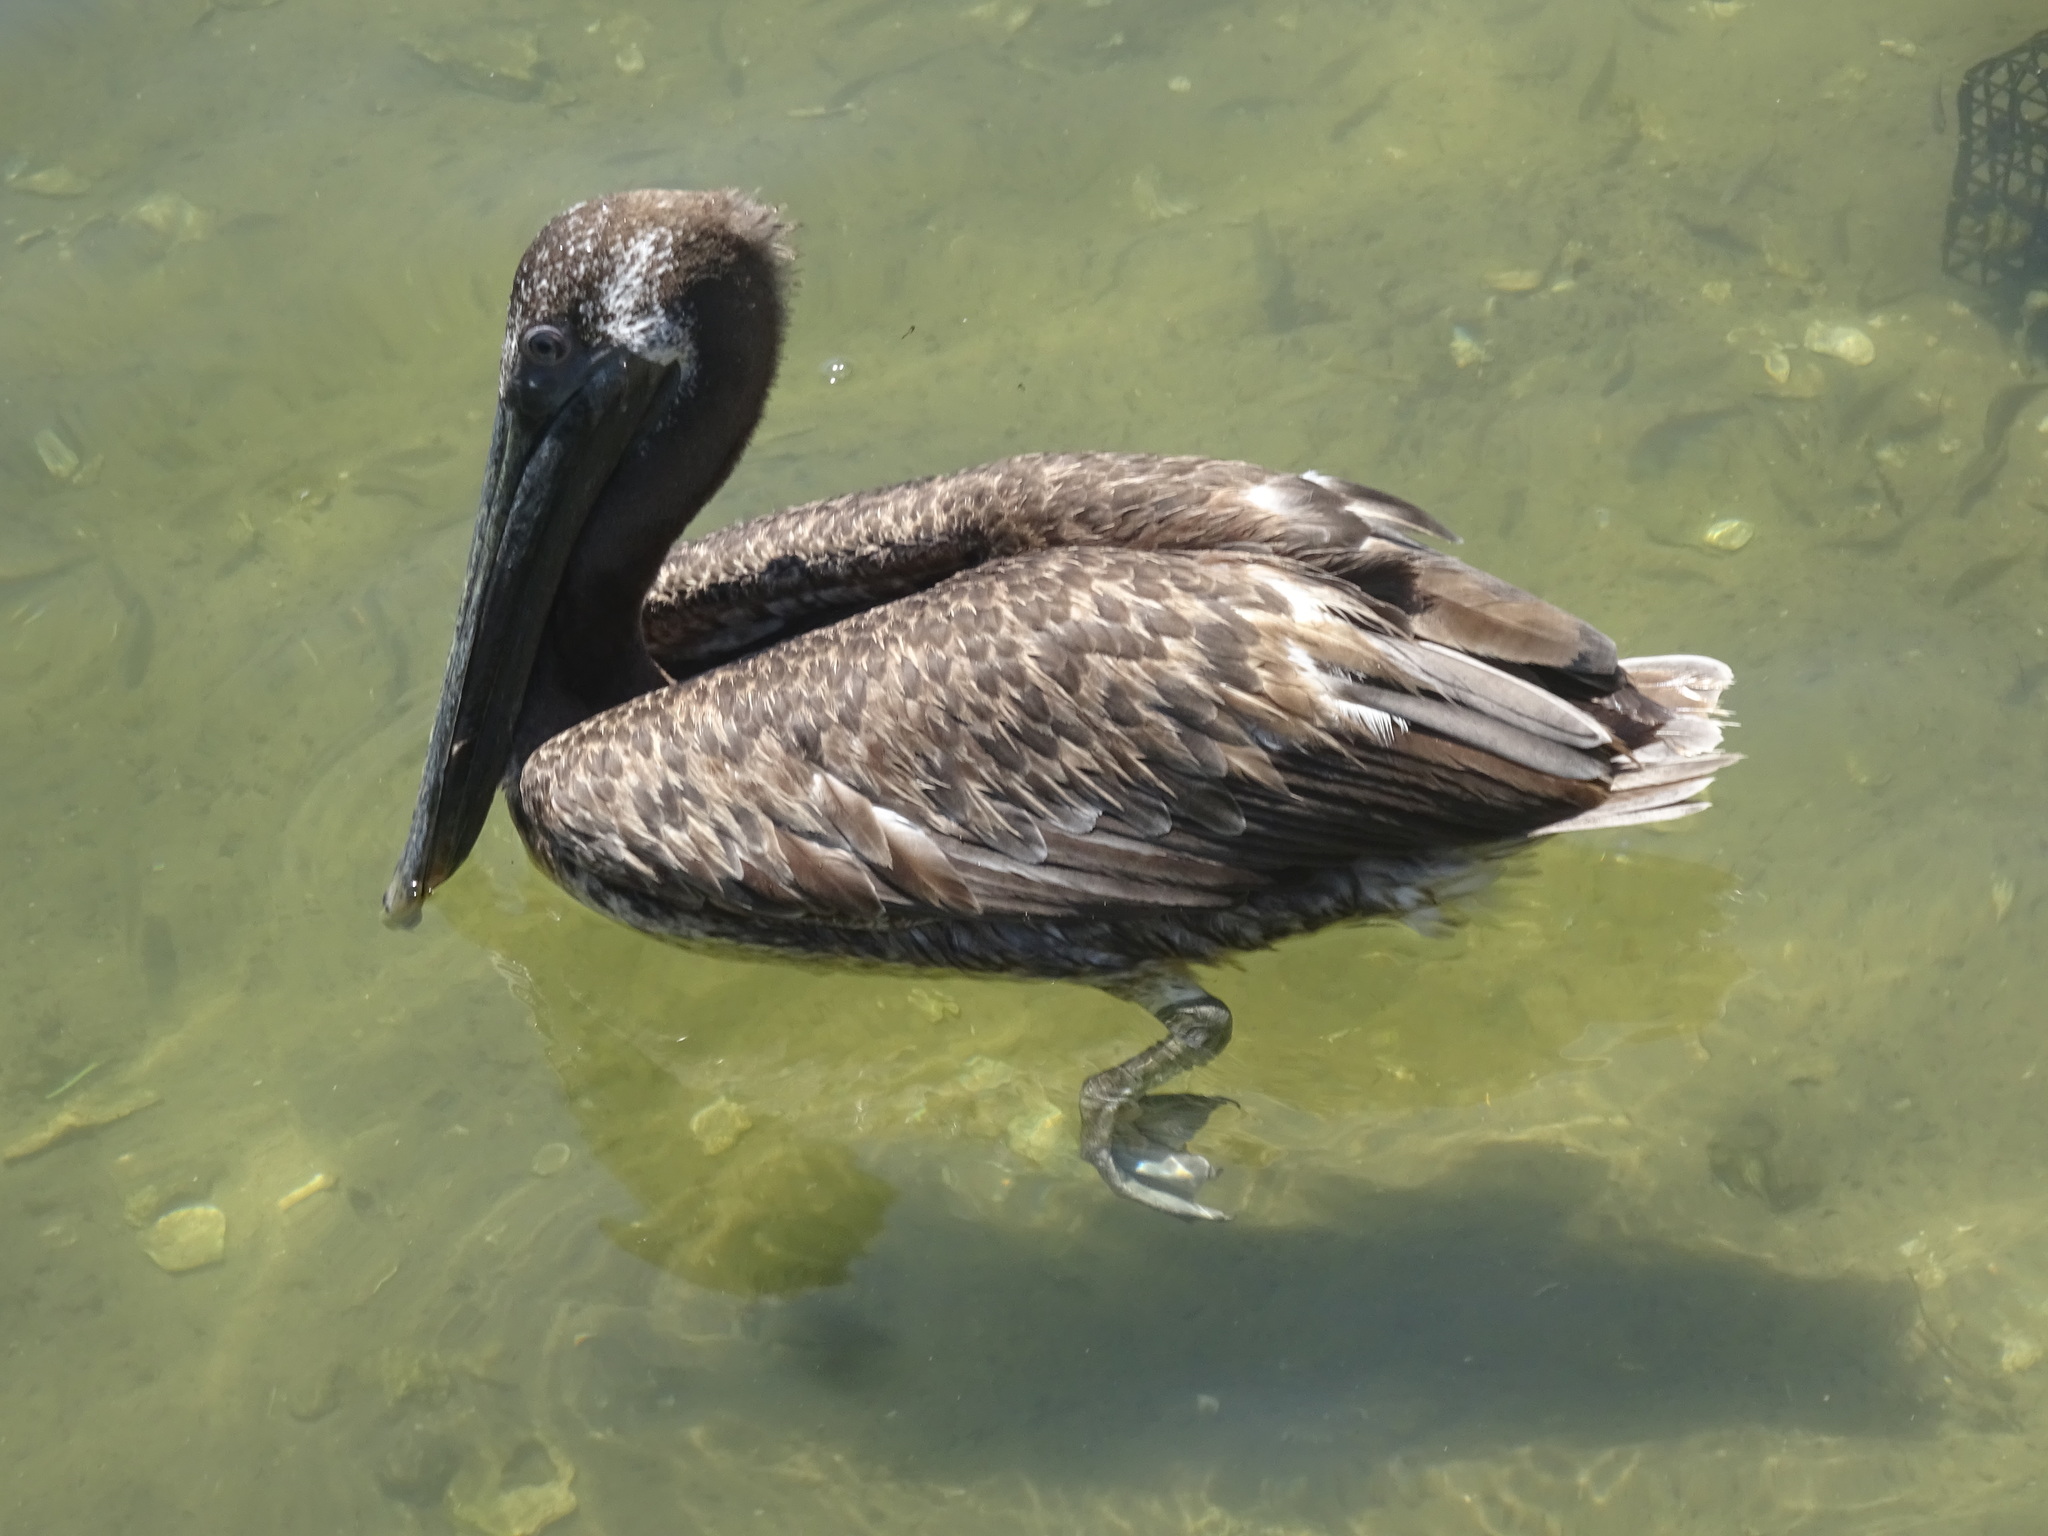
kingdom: Animalia
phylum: Chordata
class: Aves
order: Pelecaniformes
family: Pelecanidae
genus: Pelecanus
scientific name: Pelecanus occidentalis
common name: Brown pelican
